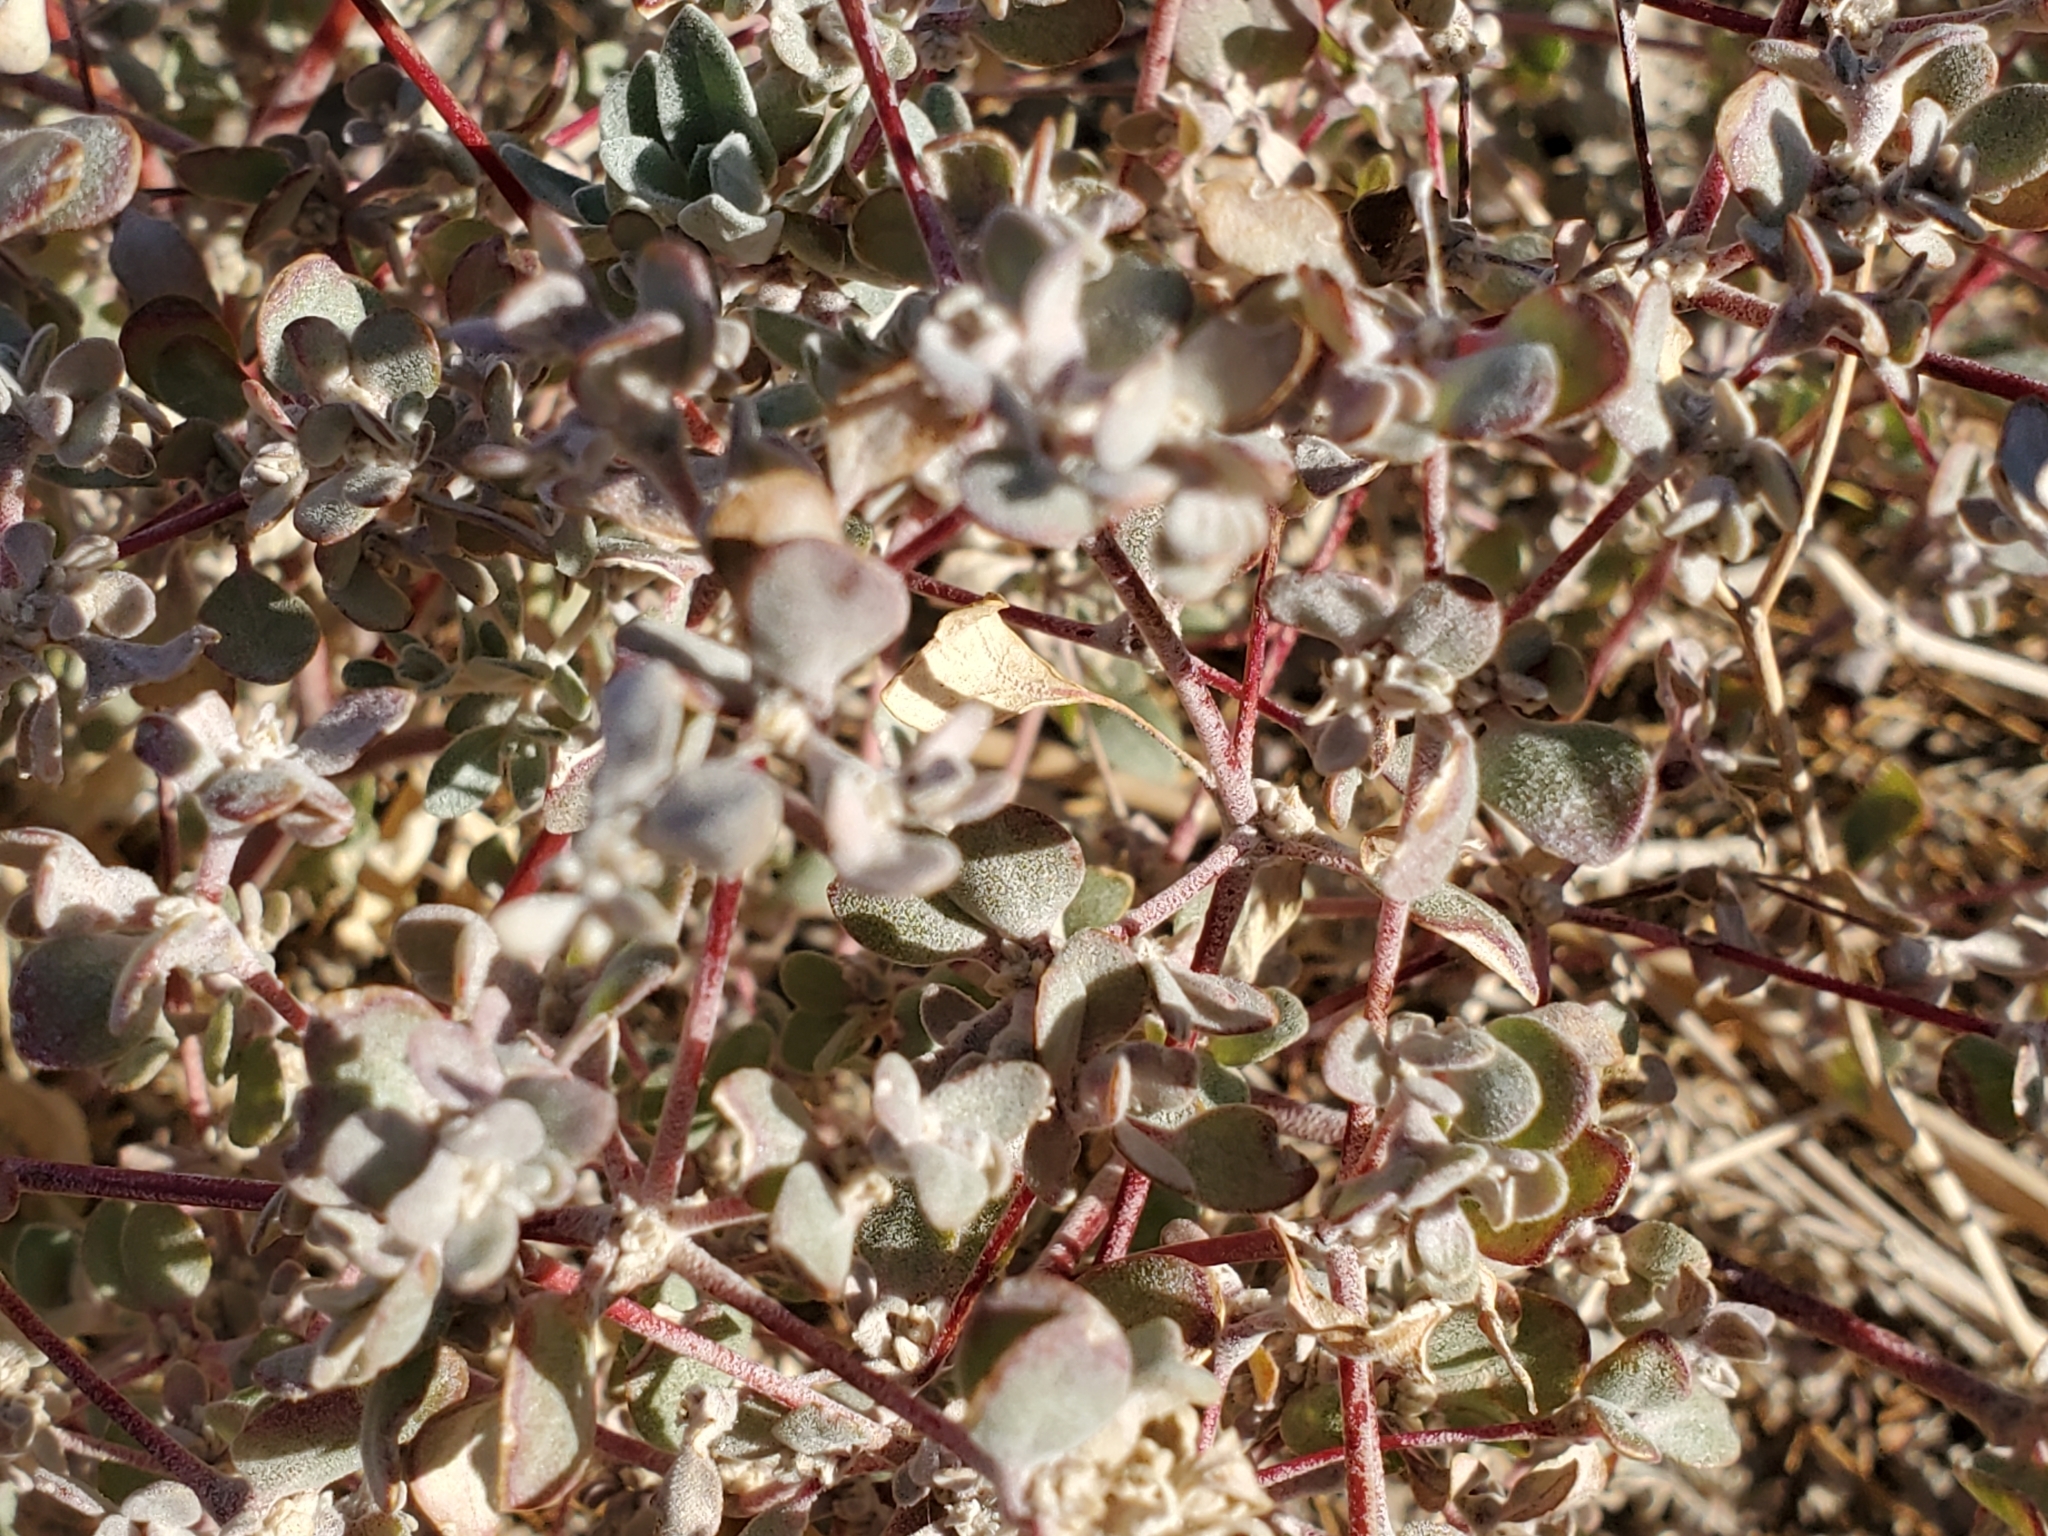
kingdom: Plantae
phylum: Tracheophyta
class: Magnoliopsida
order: Caryophyllales
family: Amaranthaceae
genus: Tidestromia
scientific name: Tidestromia suffruticosa
